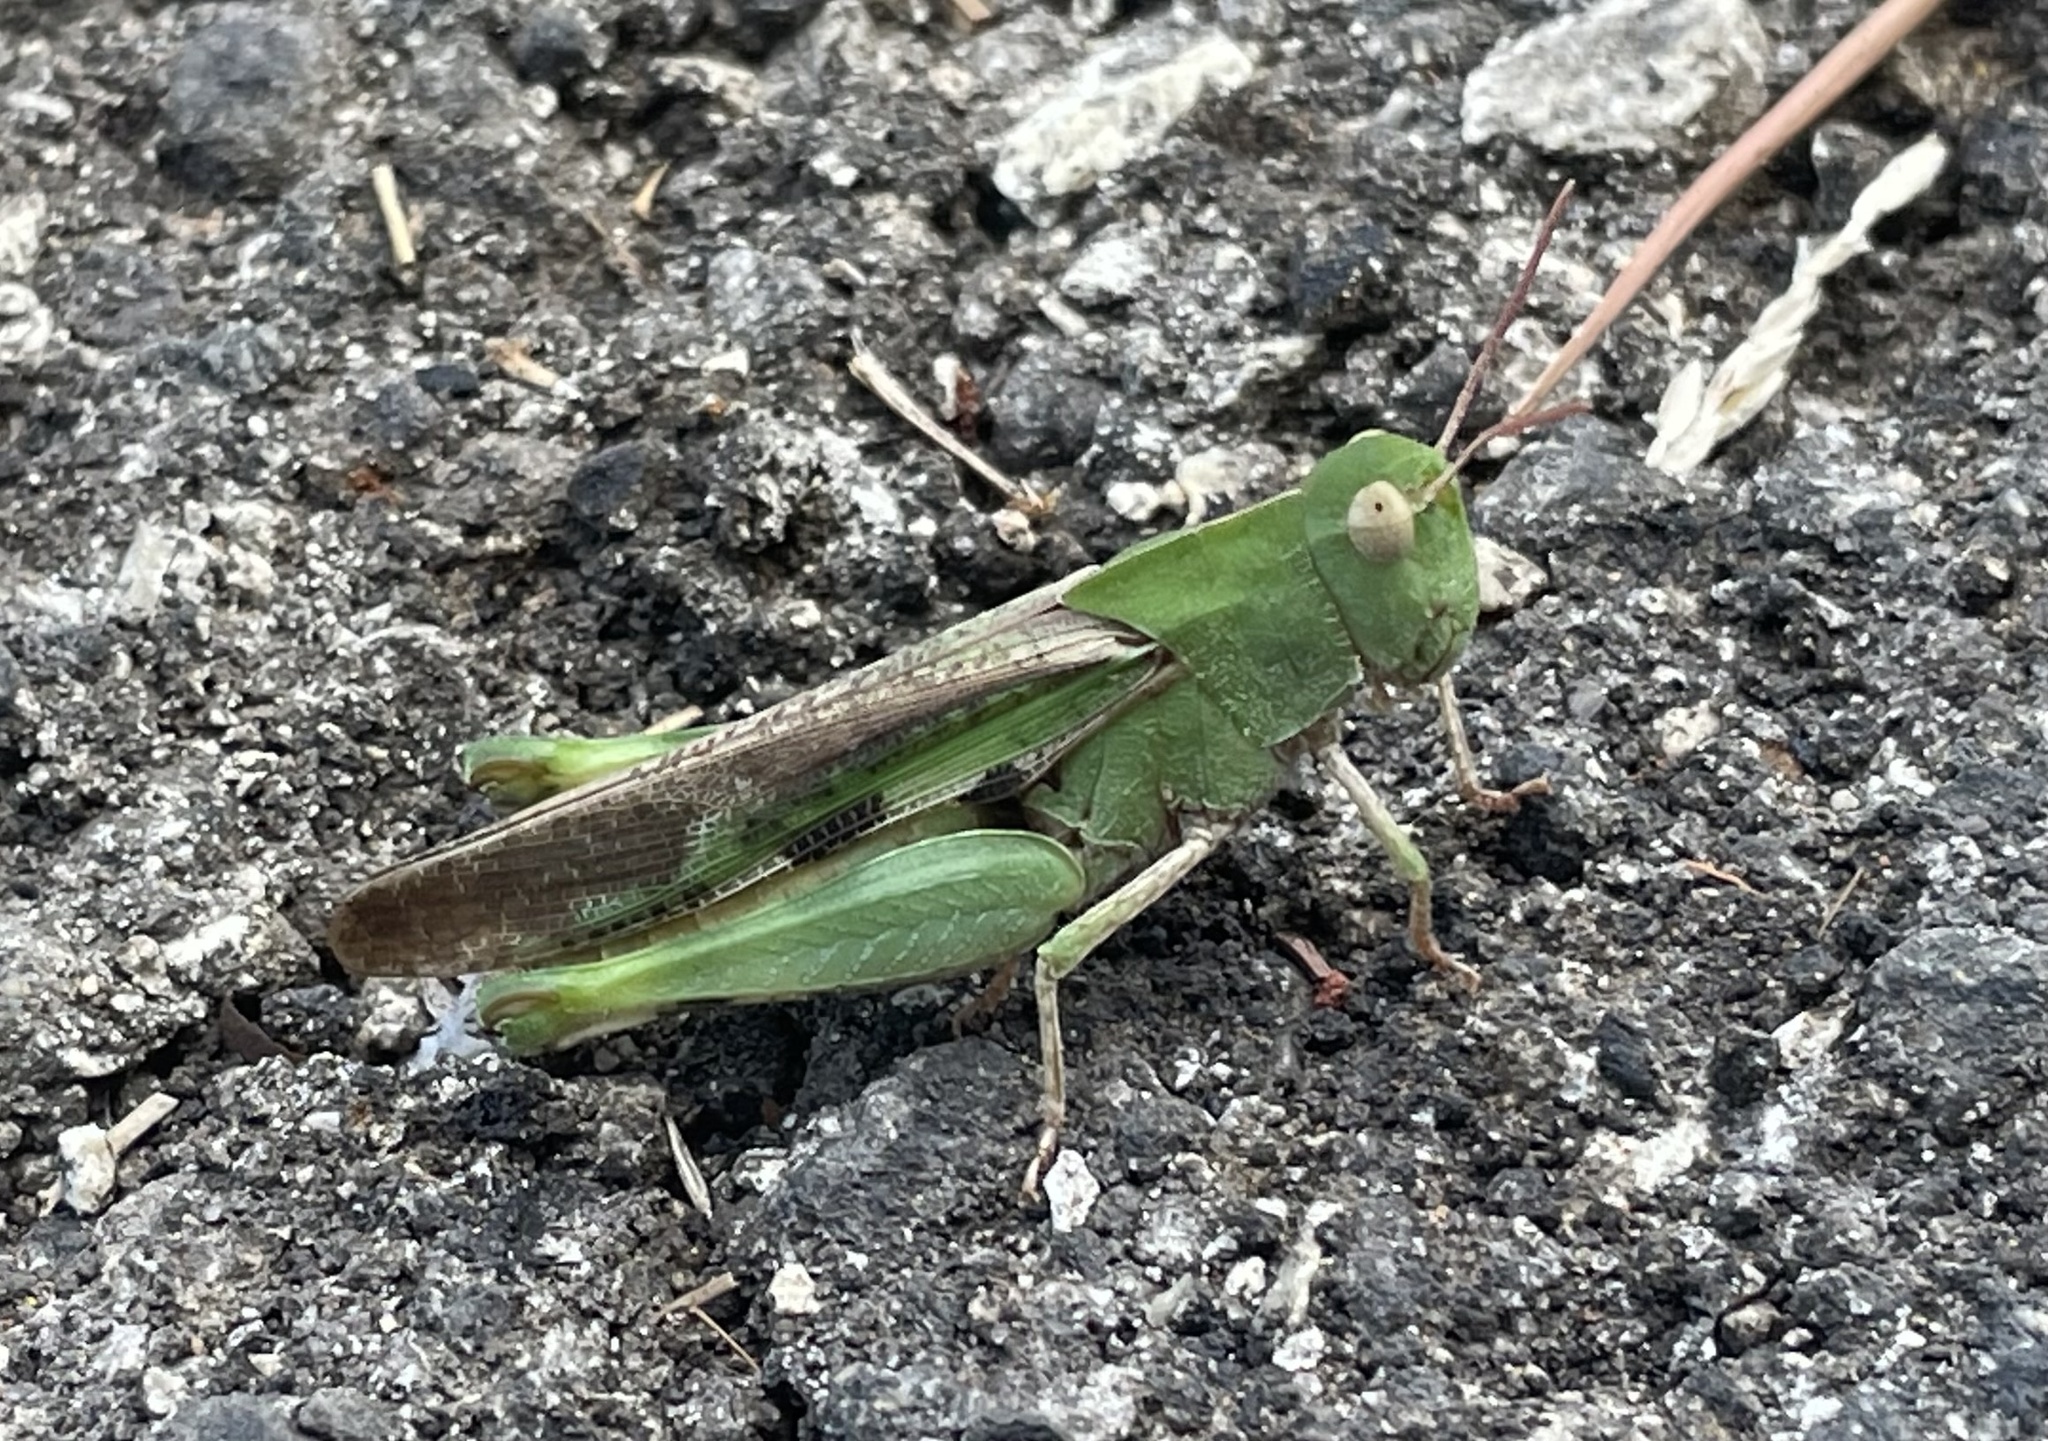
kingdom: Animalia
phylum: Arthropoda
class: Insecta
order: Orthoptera
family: Acrididae
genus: Chortophaga
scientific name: Chortophaga viridifasciata
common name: Green-striped grasshopper
